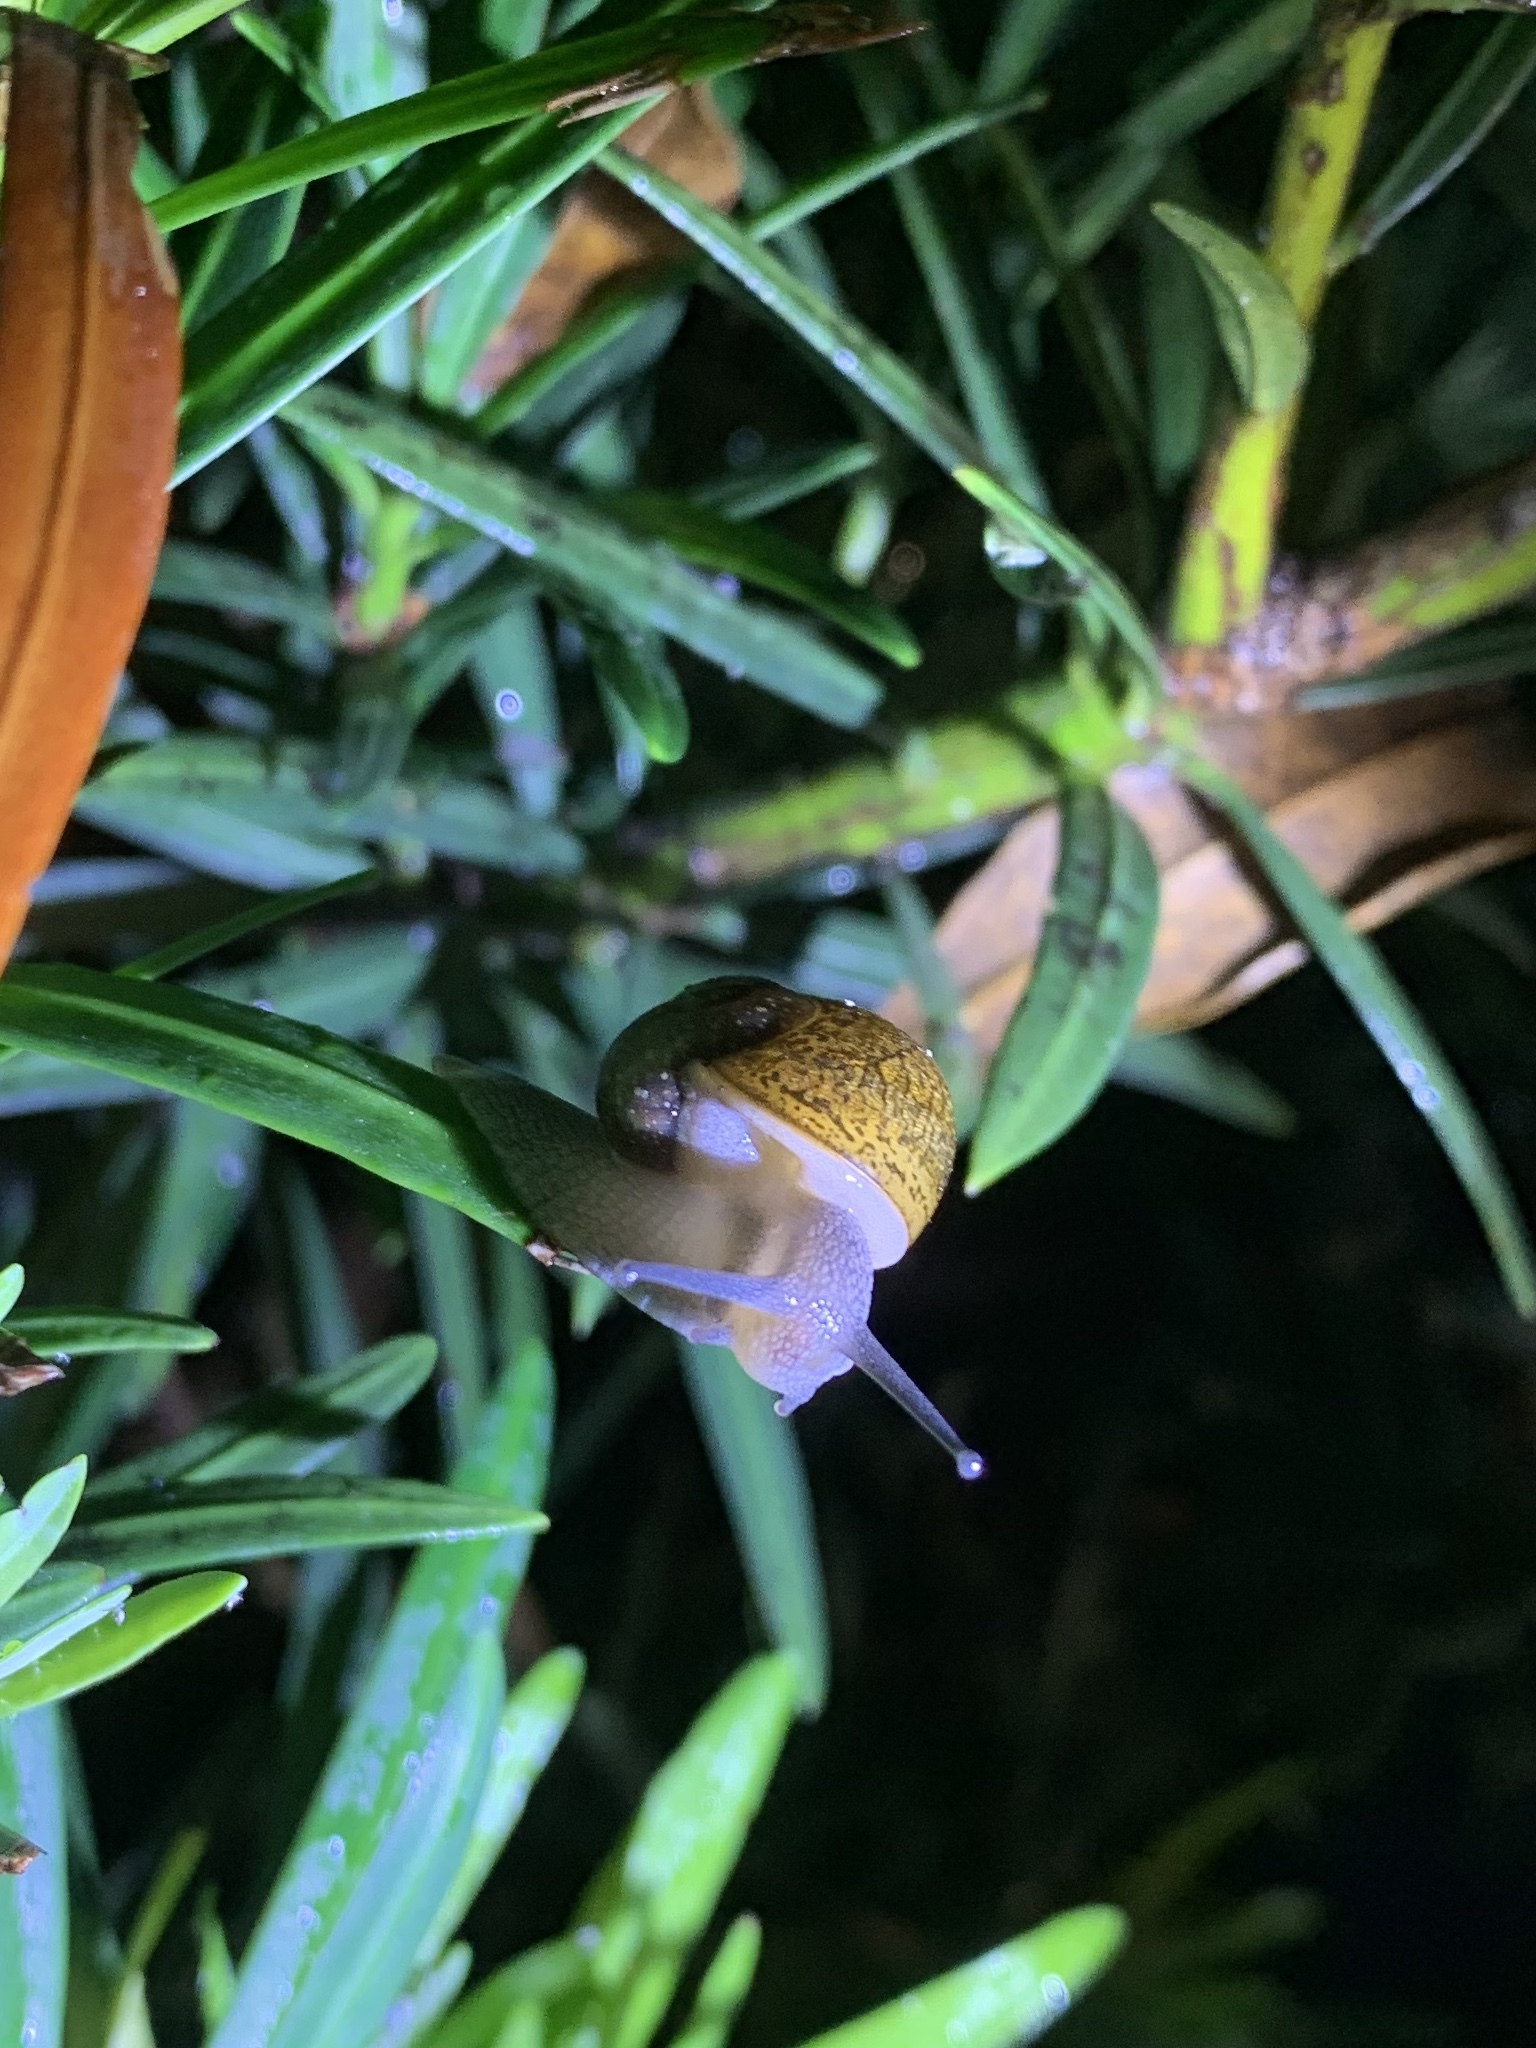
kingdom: Animalia
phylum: Mollusca
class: Gastropoda
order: Stylommatophora
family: Zachrysiidae
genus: Zachrysia
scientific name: Zachrysia provisoria
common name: Garden zachrysia
